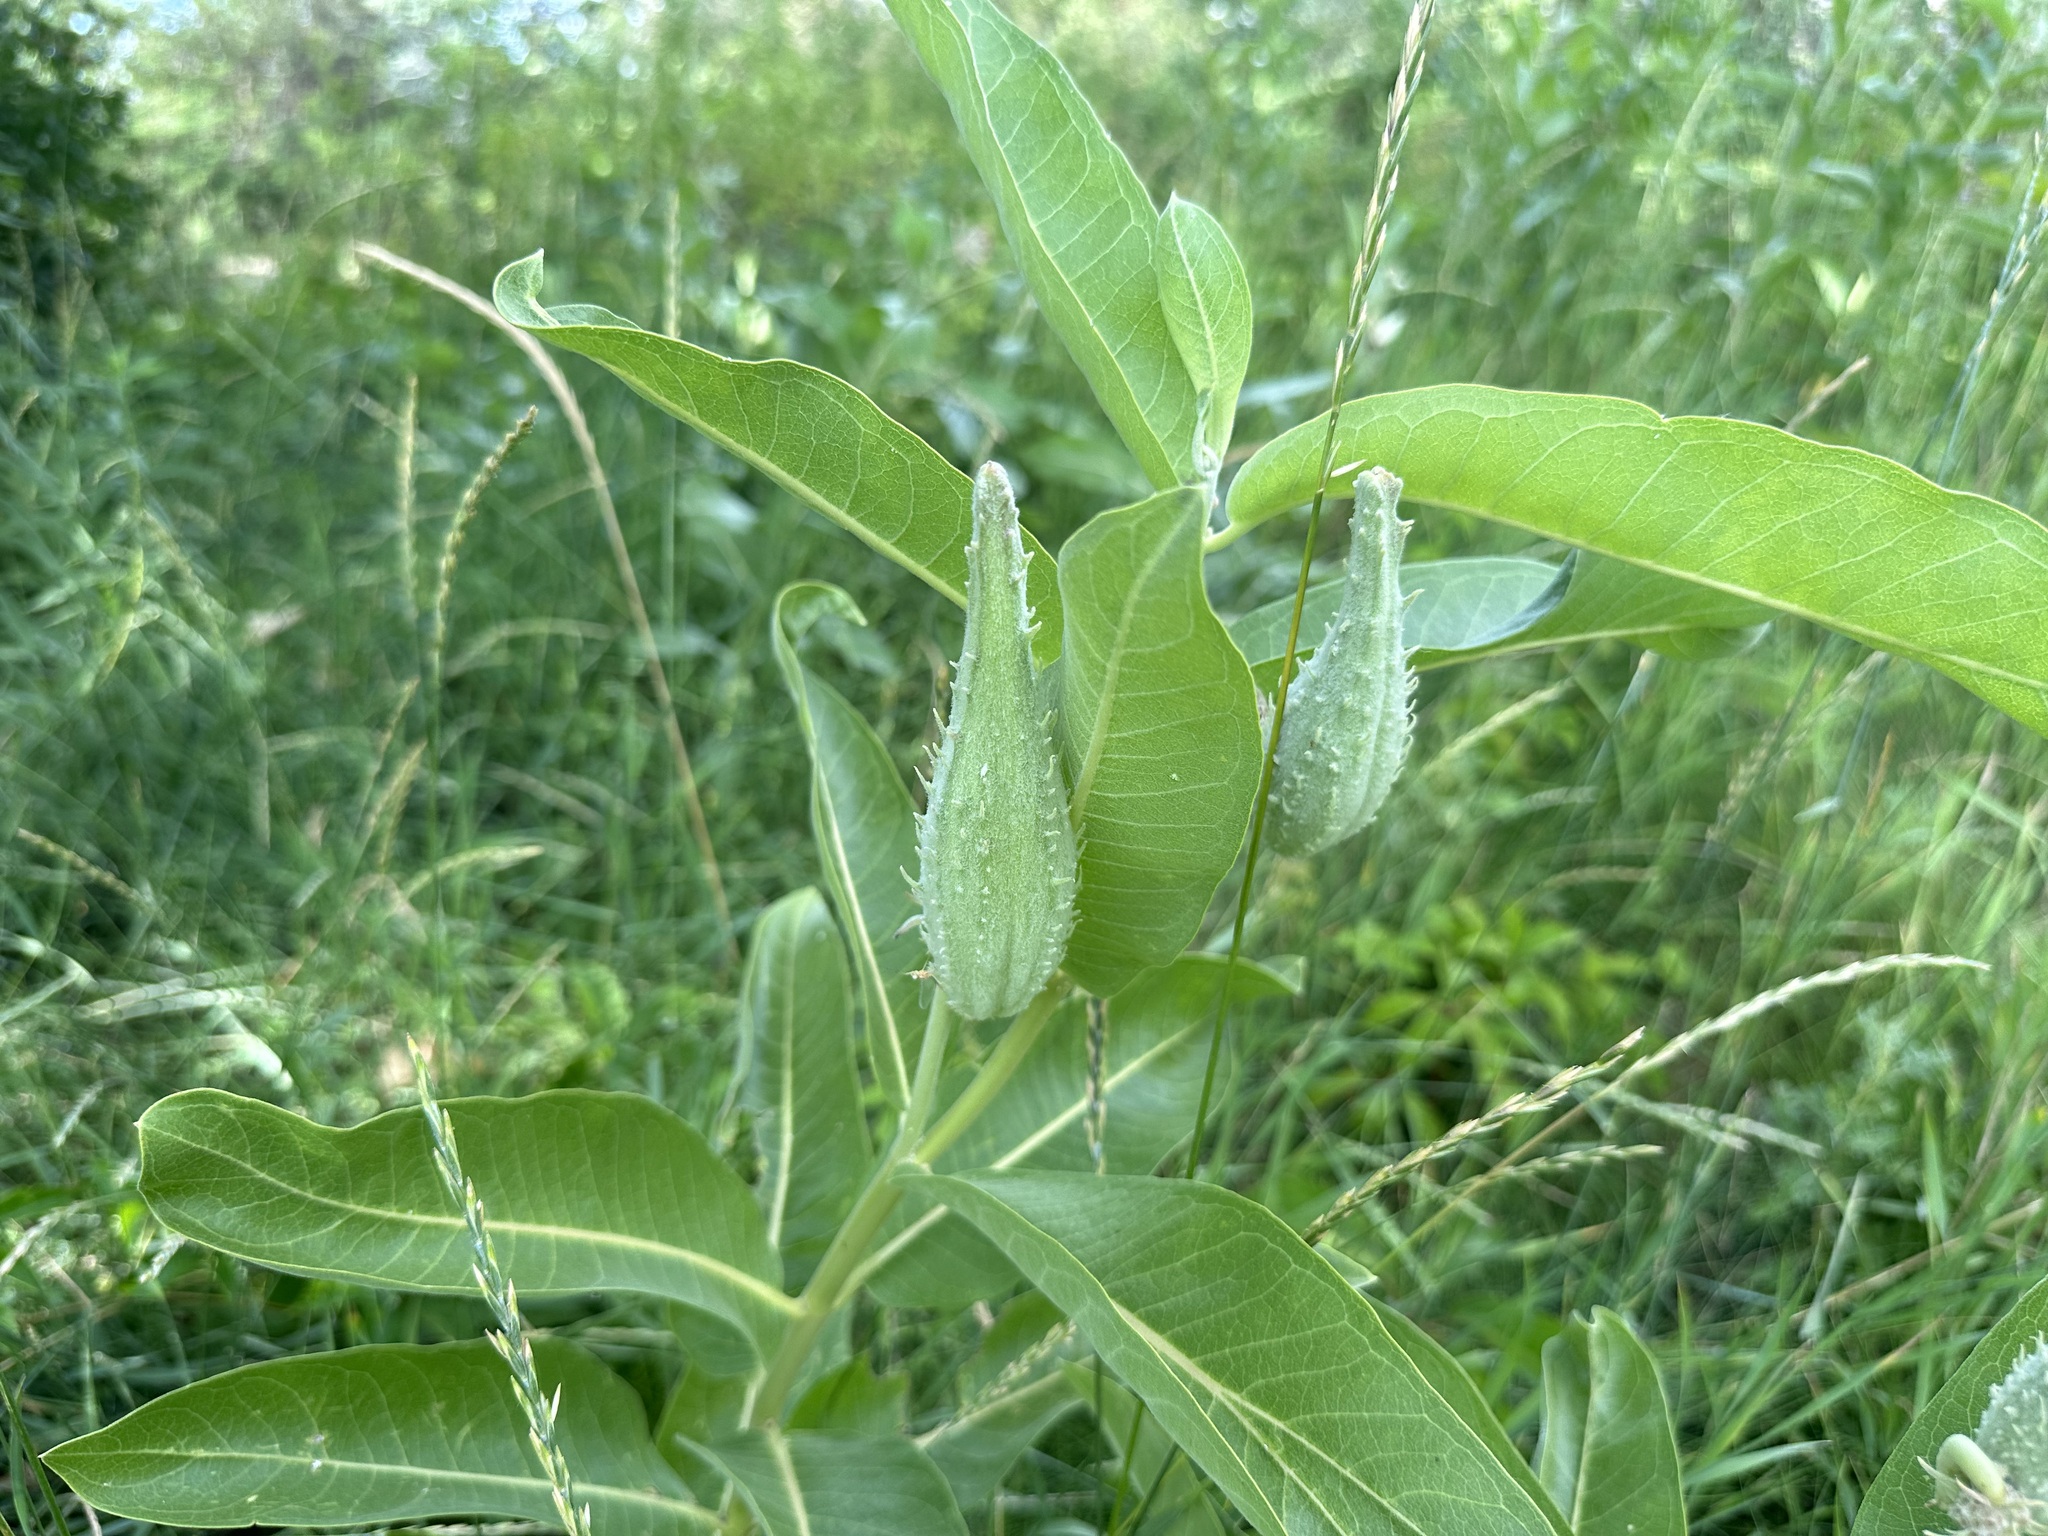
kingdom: Plantae
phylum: Tracheophyta
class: Magnoliopsida
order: Gentianales
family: Apocynaceae
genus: Asclepias
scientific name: Asclepias speciosa
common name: Showy milkweed
